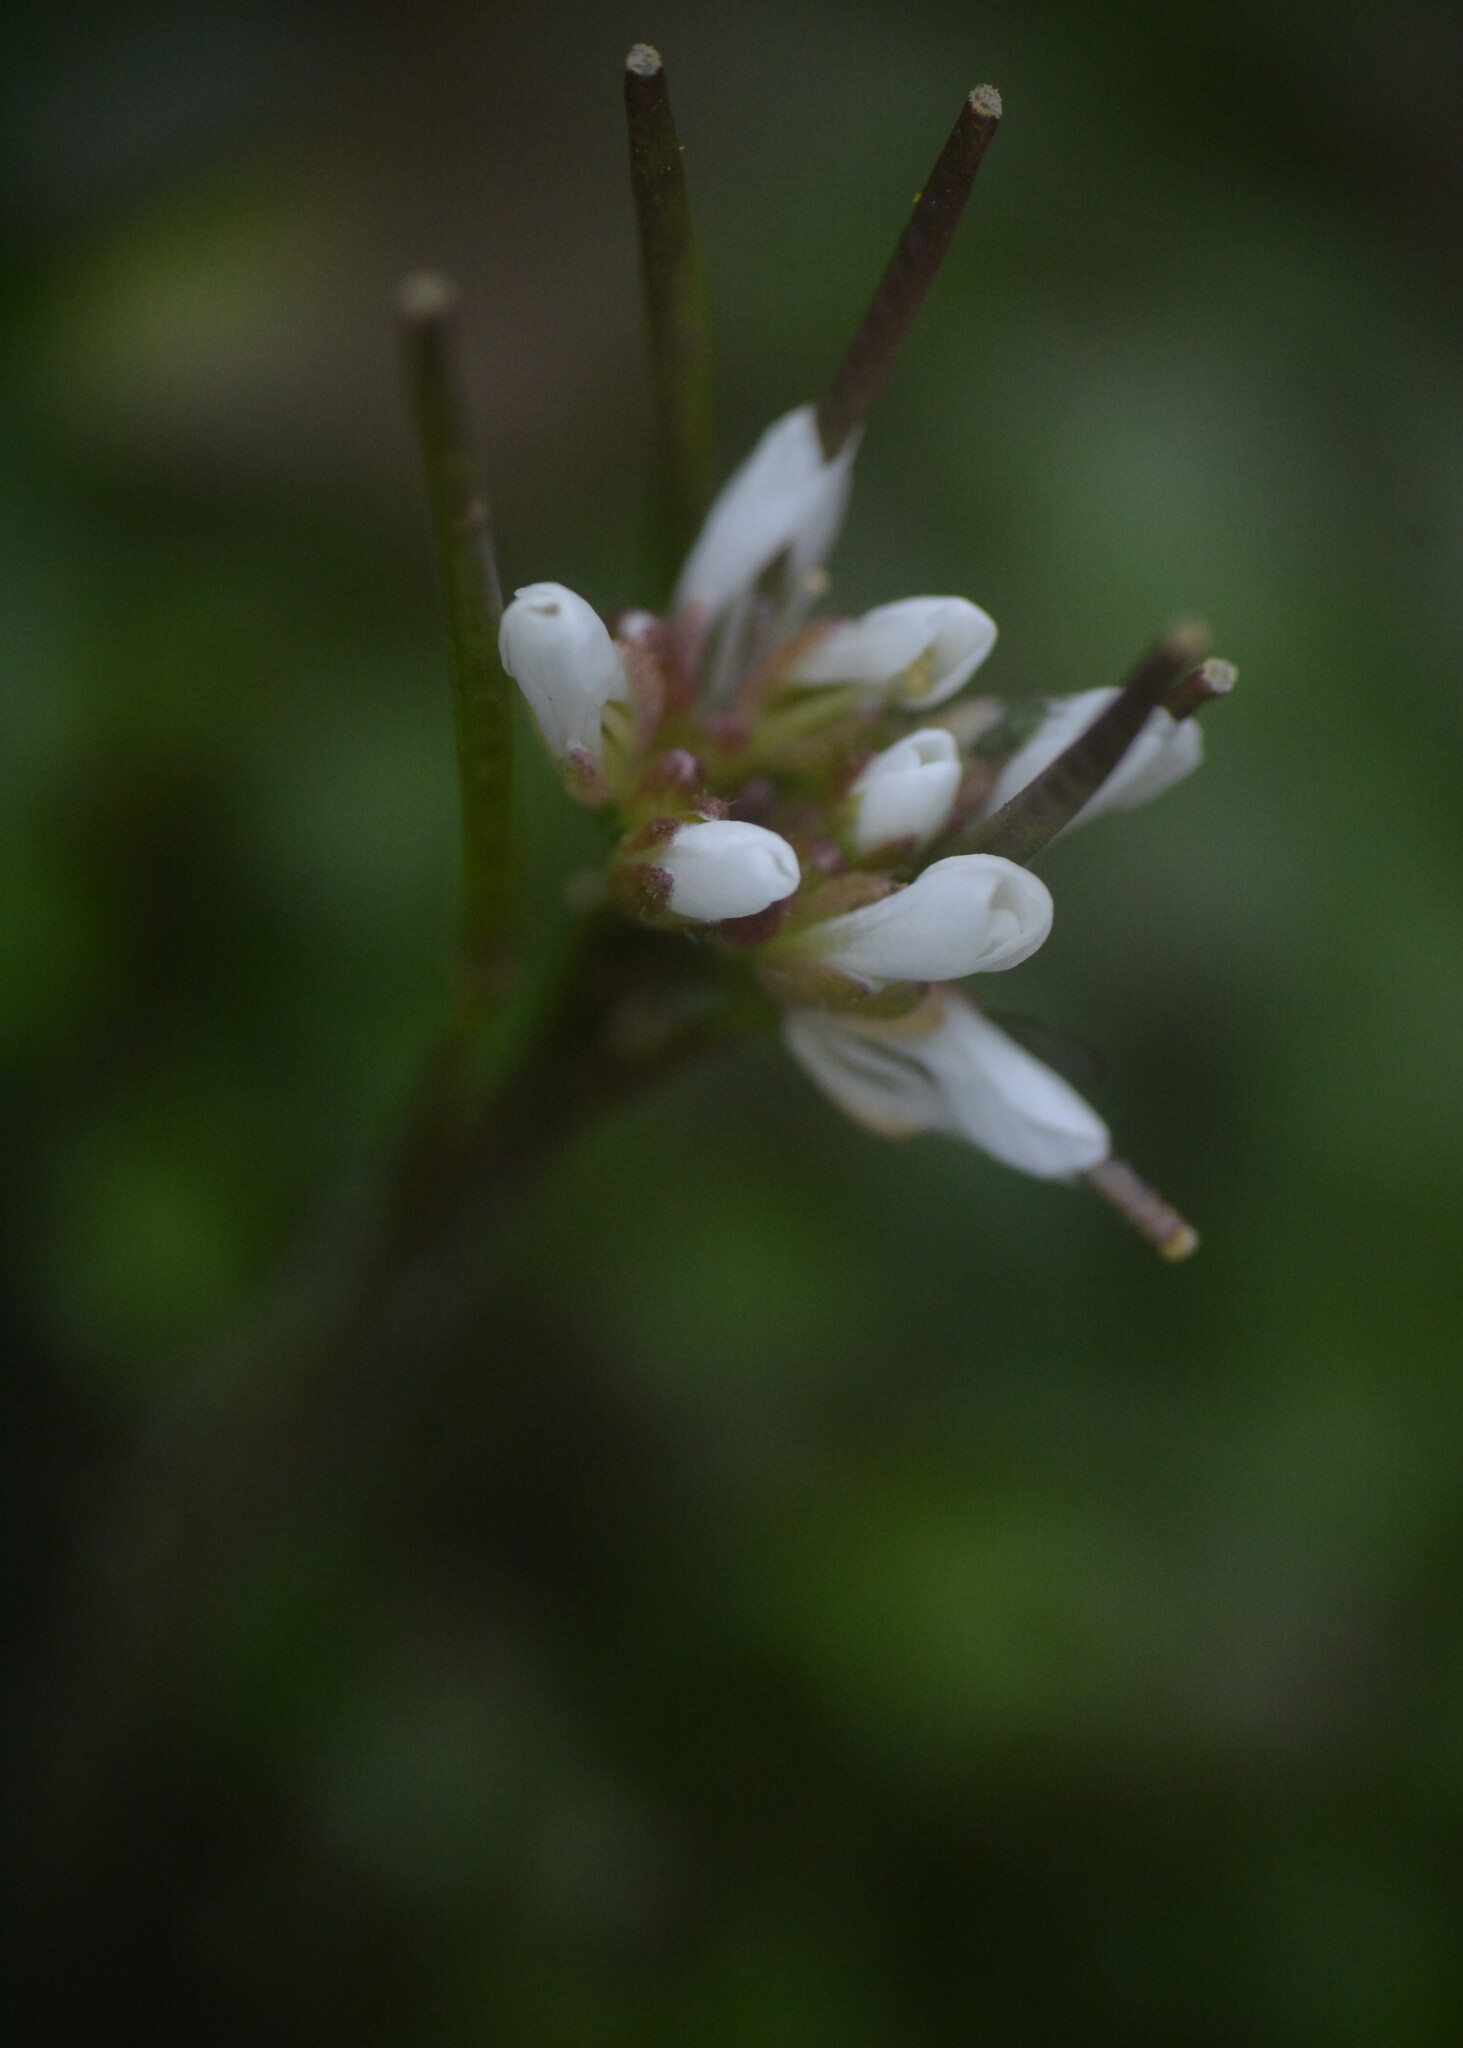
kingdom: Plantae
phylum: Tracheophyta
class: Magnoliopsida
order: Brassicales
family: Brassicaceae
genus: Cardamine
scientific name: Cardamine hirsuta
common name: Hairy bittercress
